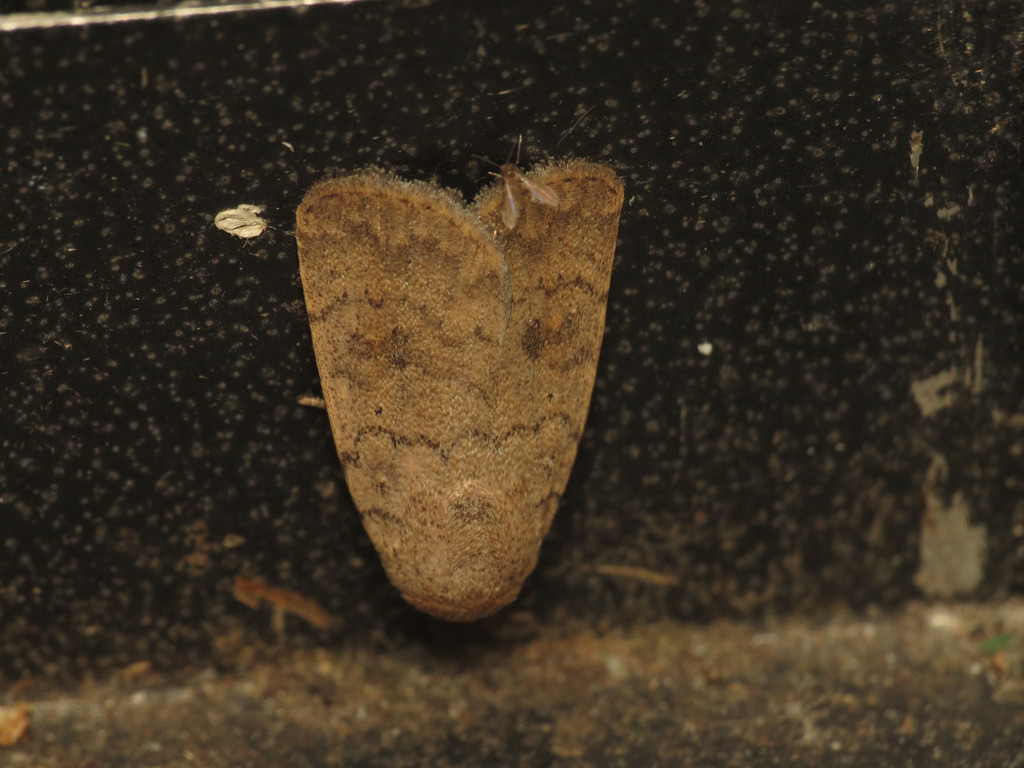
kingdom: Animalia
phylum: Arthropoda
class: Insecta
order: Lepidoptera
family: Noctuidae
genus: Athetis
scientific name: Athetis reclusa
